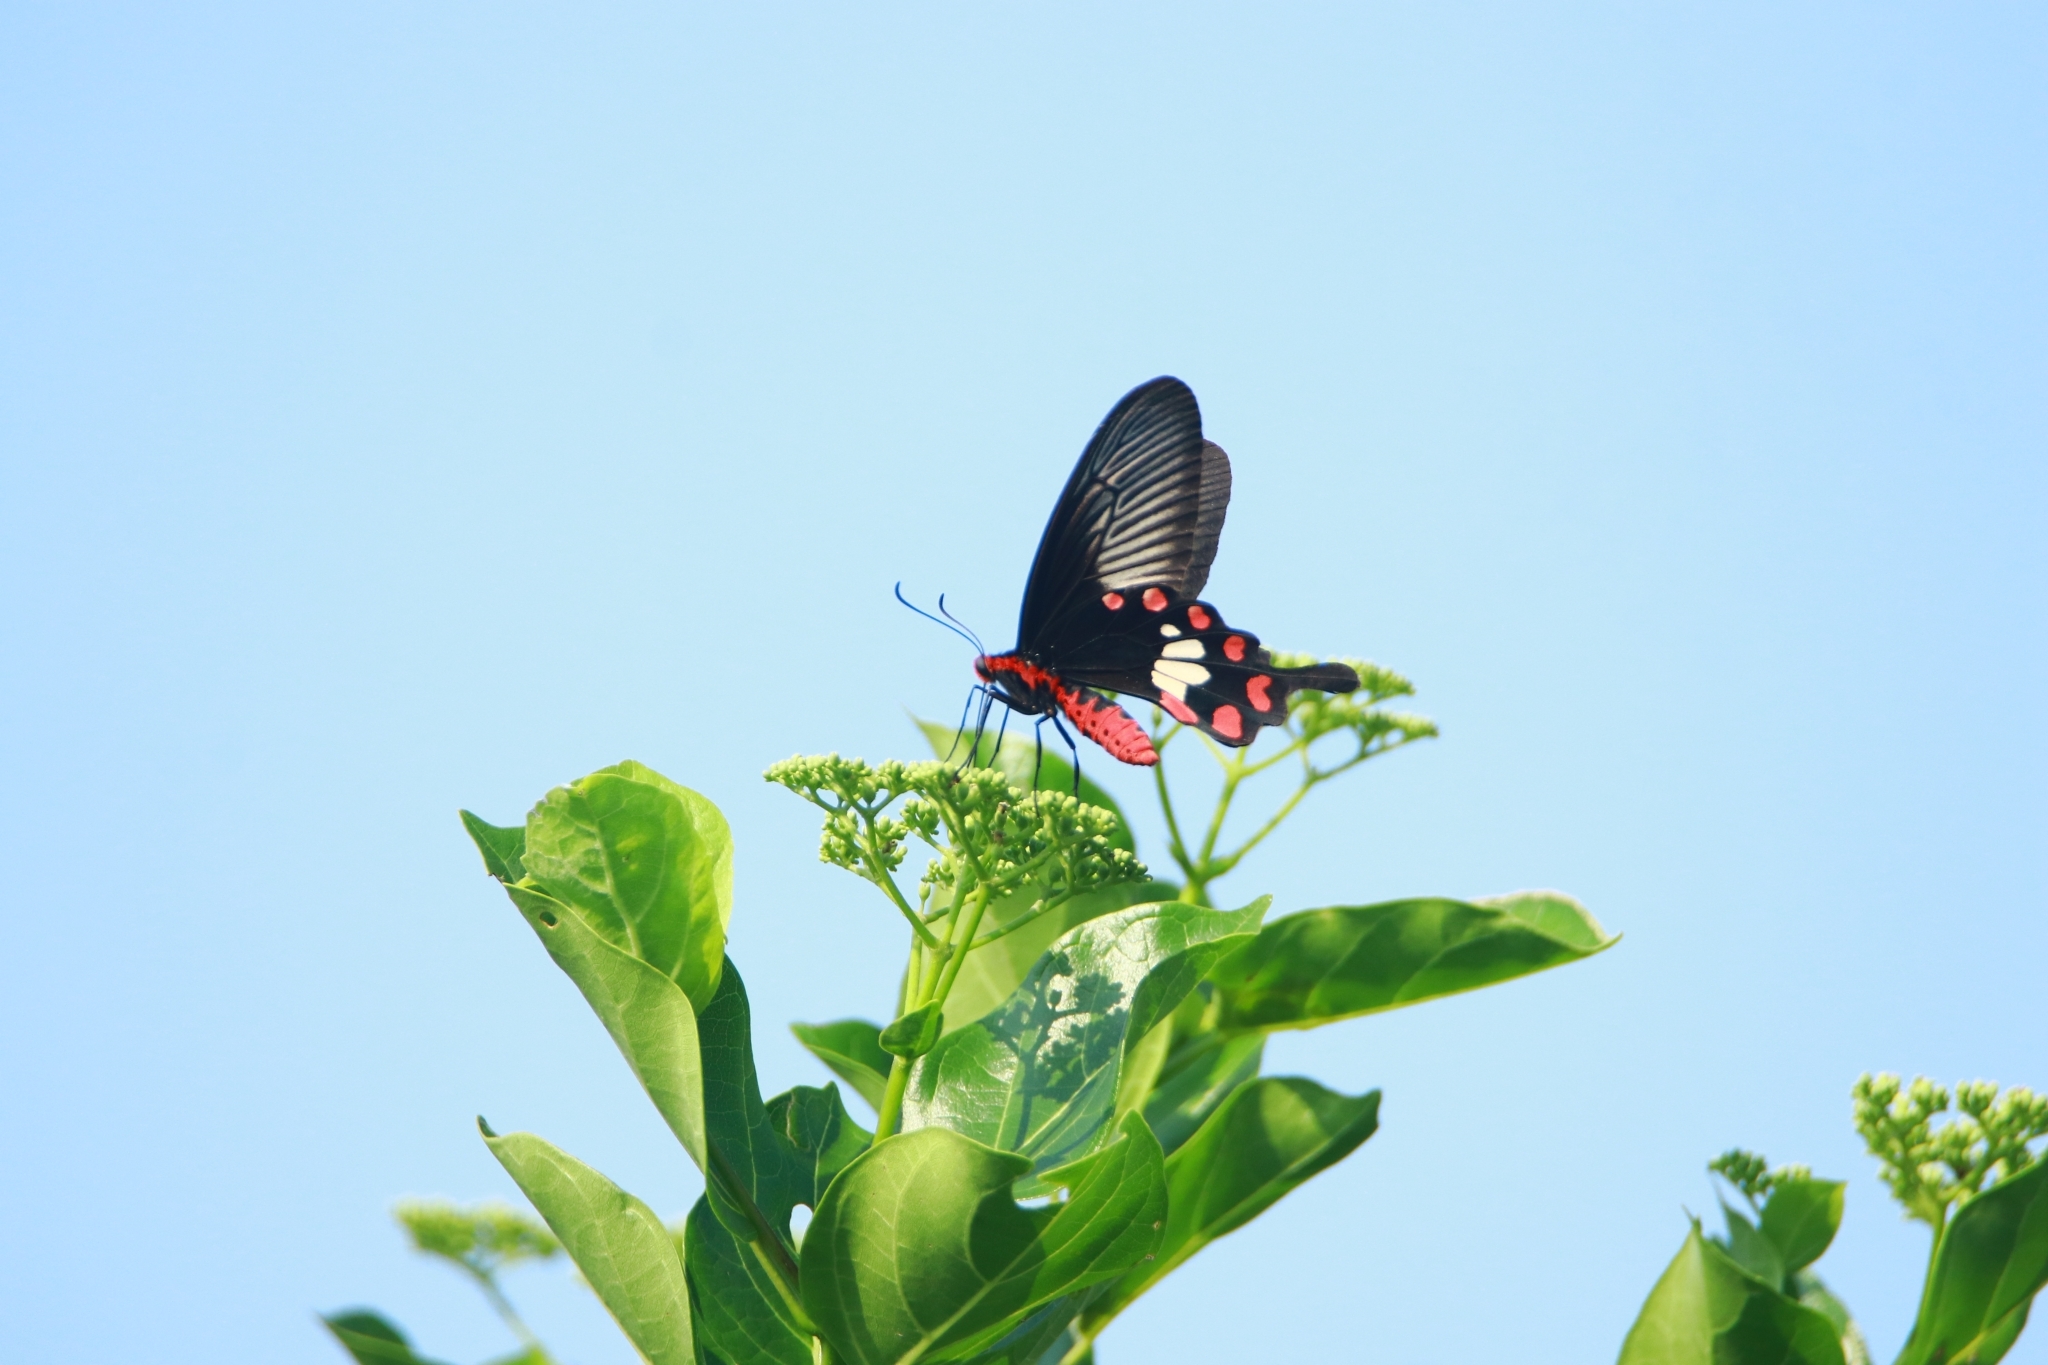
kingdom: Animalia
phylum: Arthropoda
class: Insecta
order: Lepidoptera
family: Papilionidae
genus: Pachliopta
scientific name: Pachliopta aristolochiae
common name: Common rose
